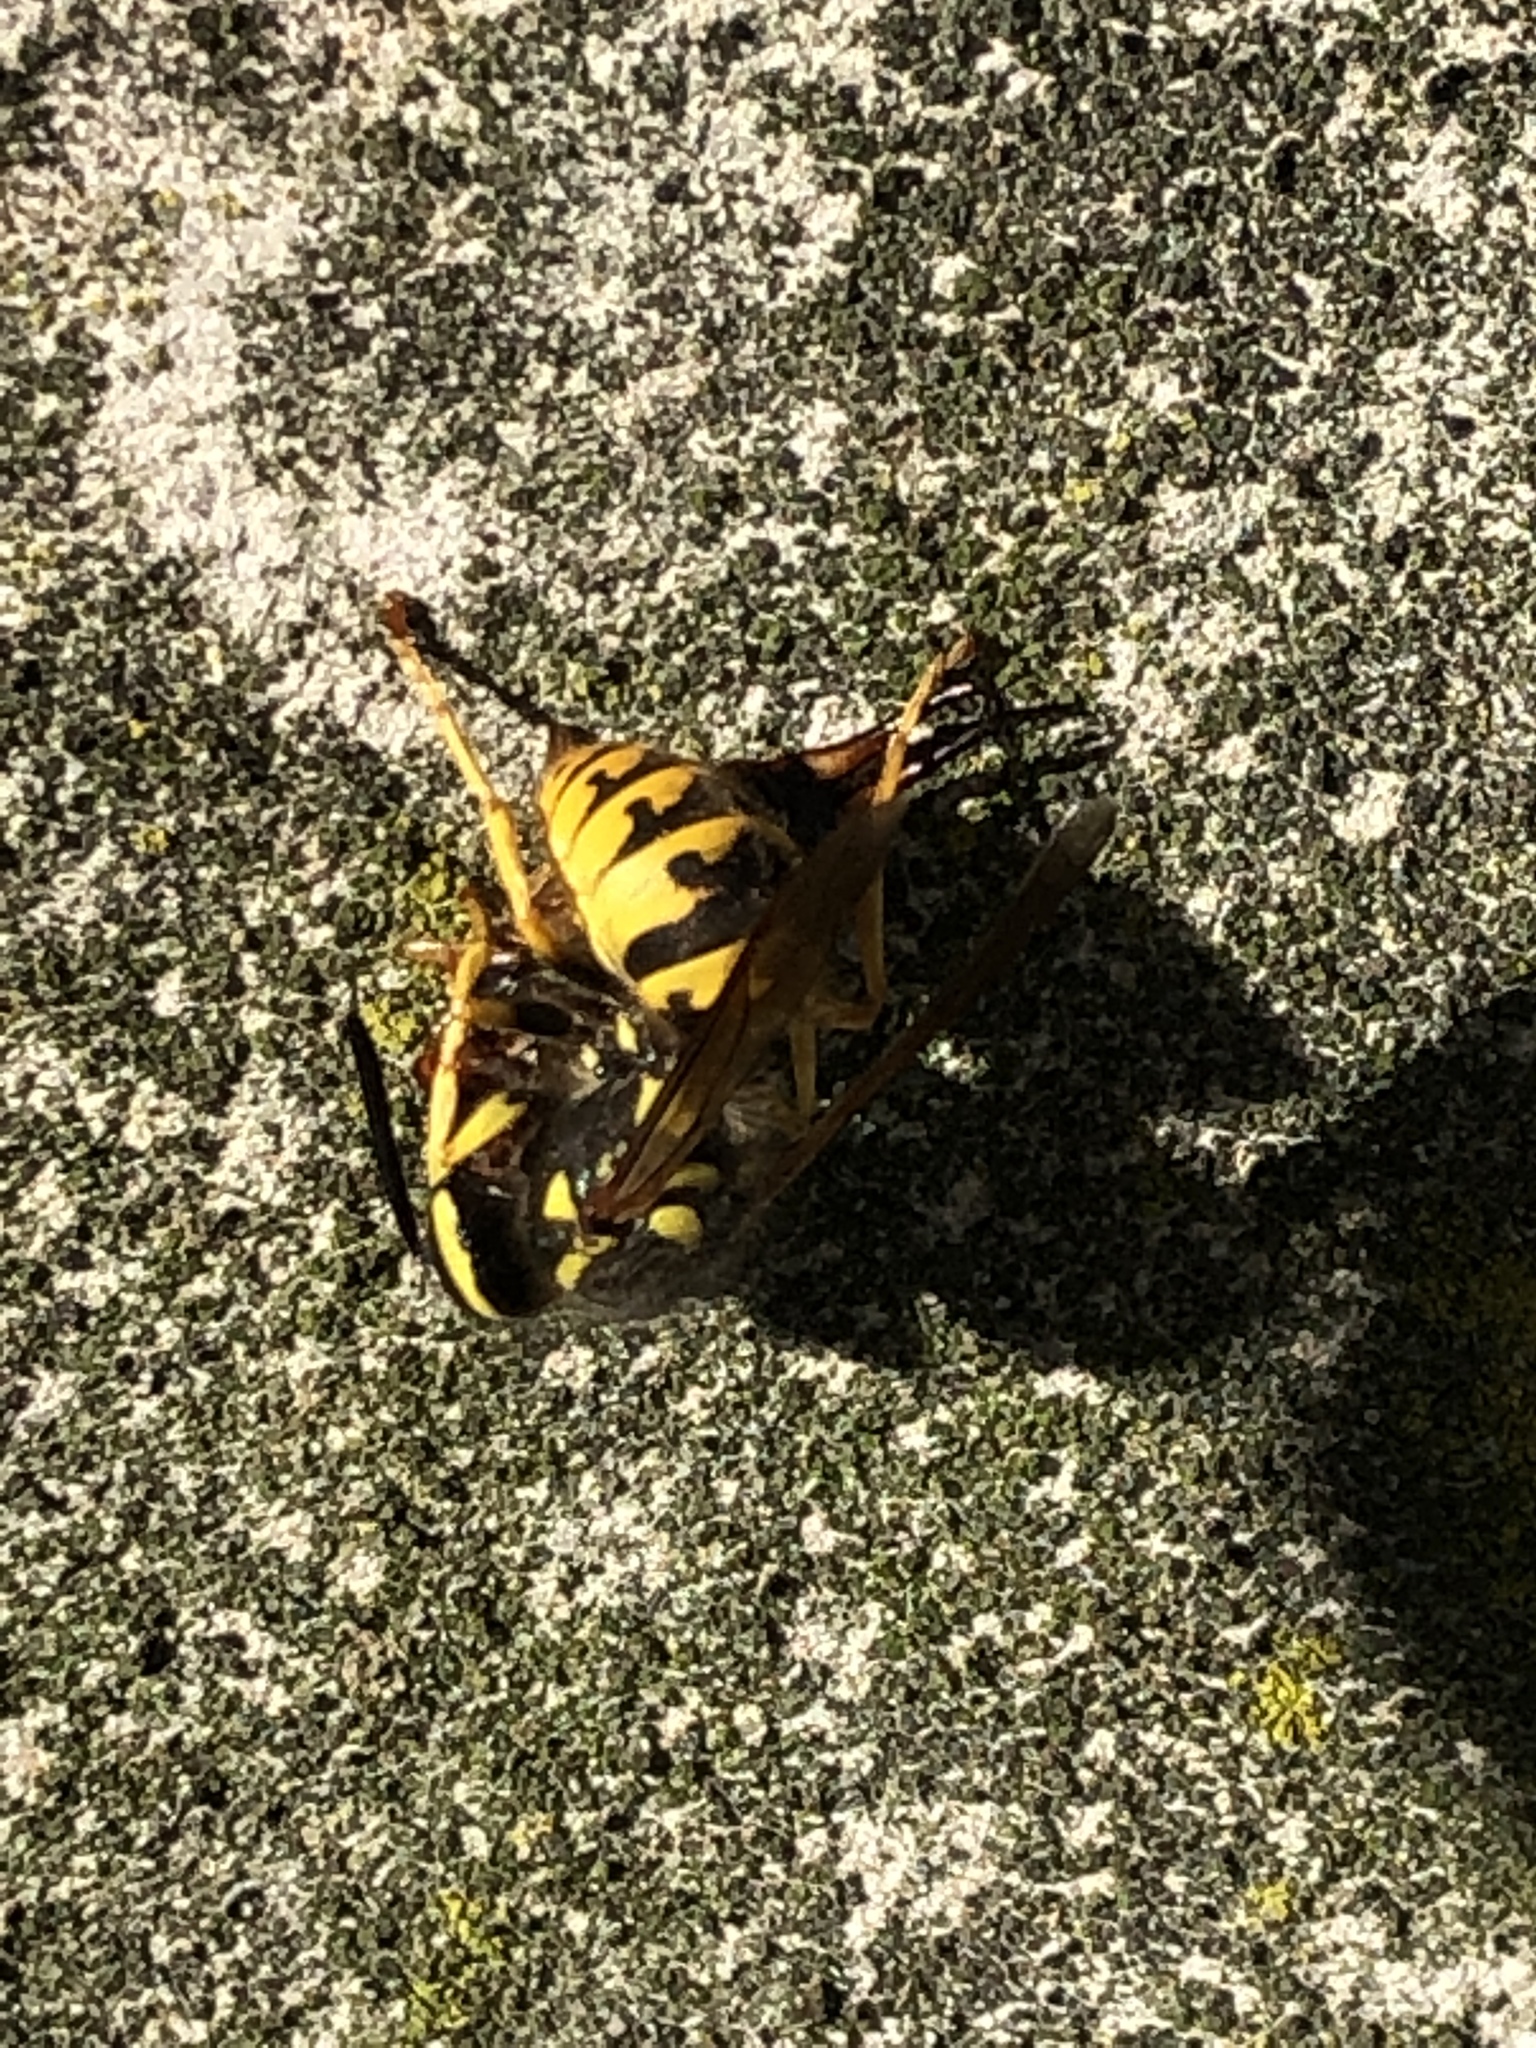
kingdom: Animalia
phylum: Arthropoda
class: Insecta
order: Hymenoptera
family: Vespidae
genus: Vespula
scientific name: Vespula germanica
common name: German wasp
